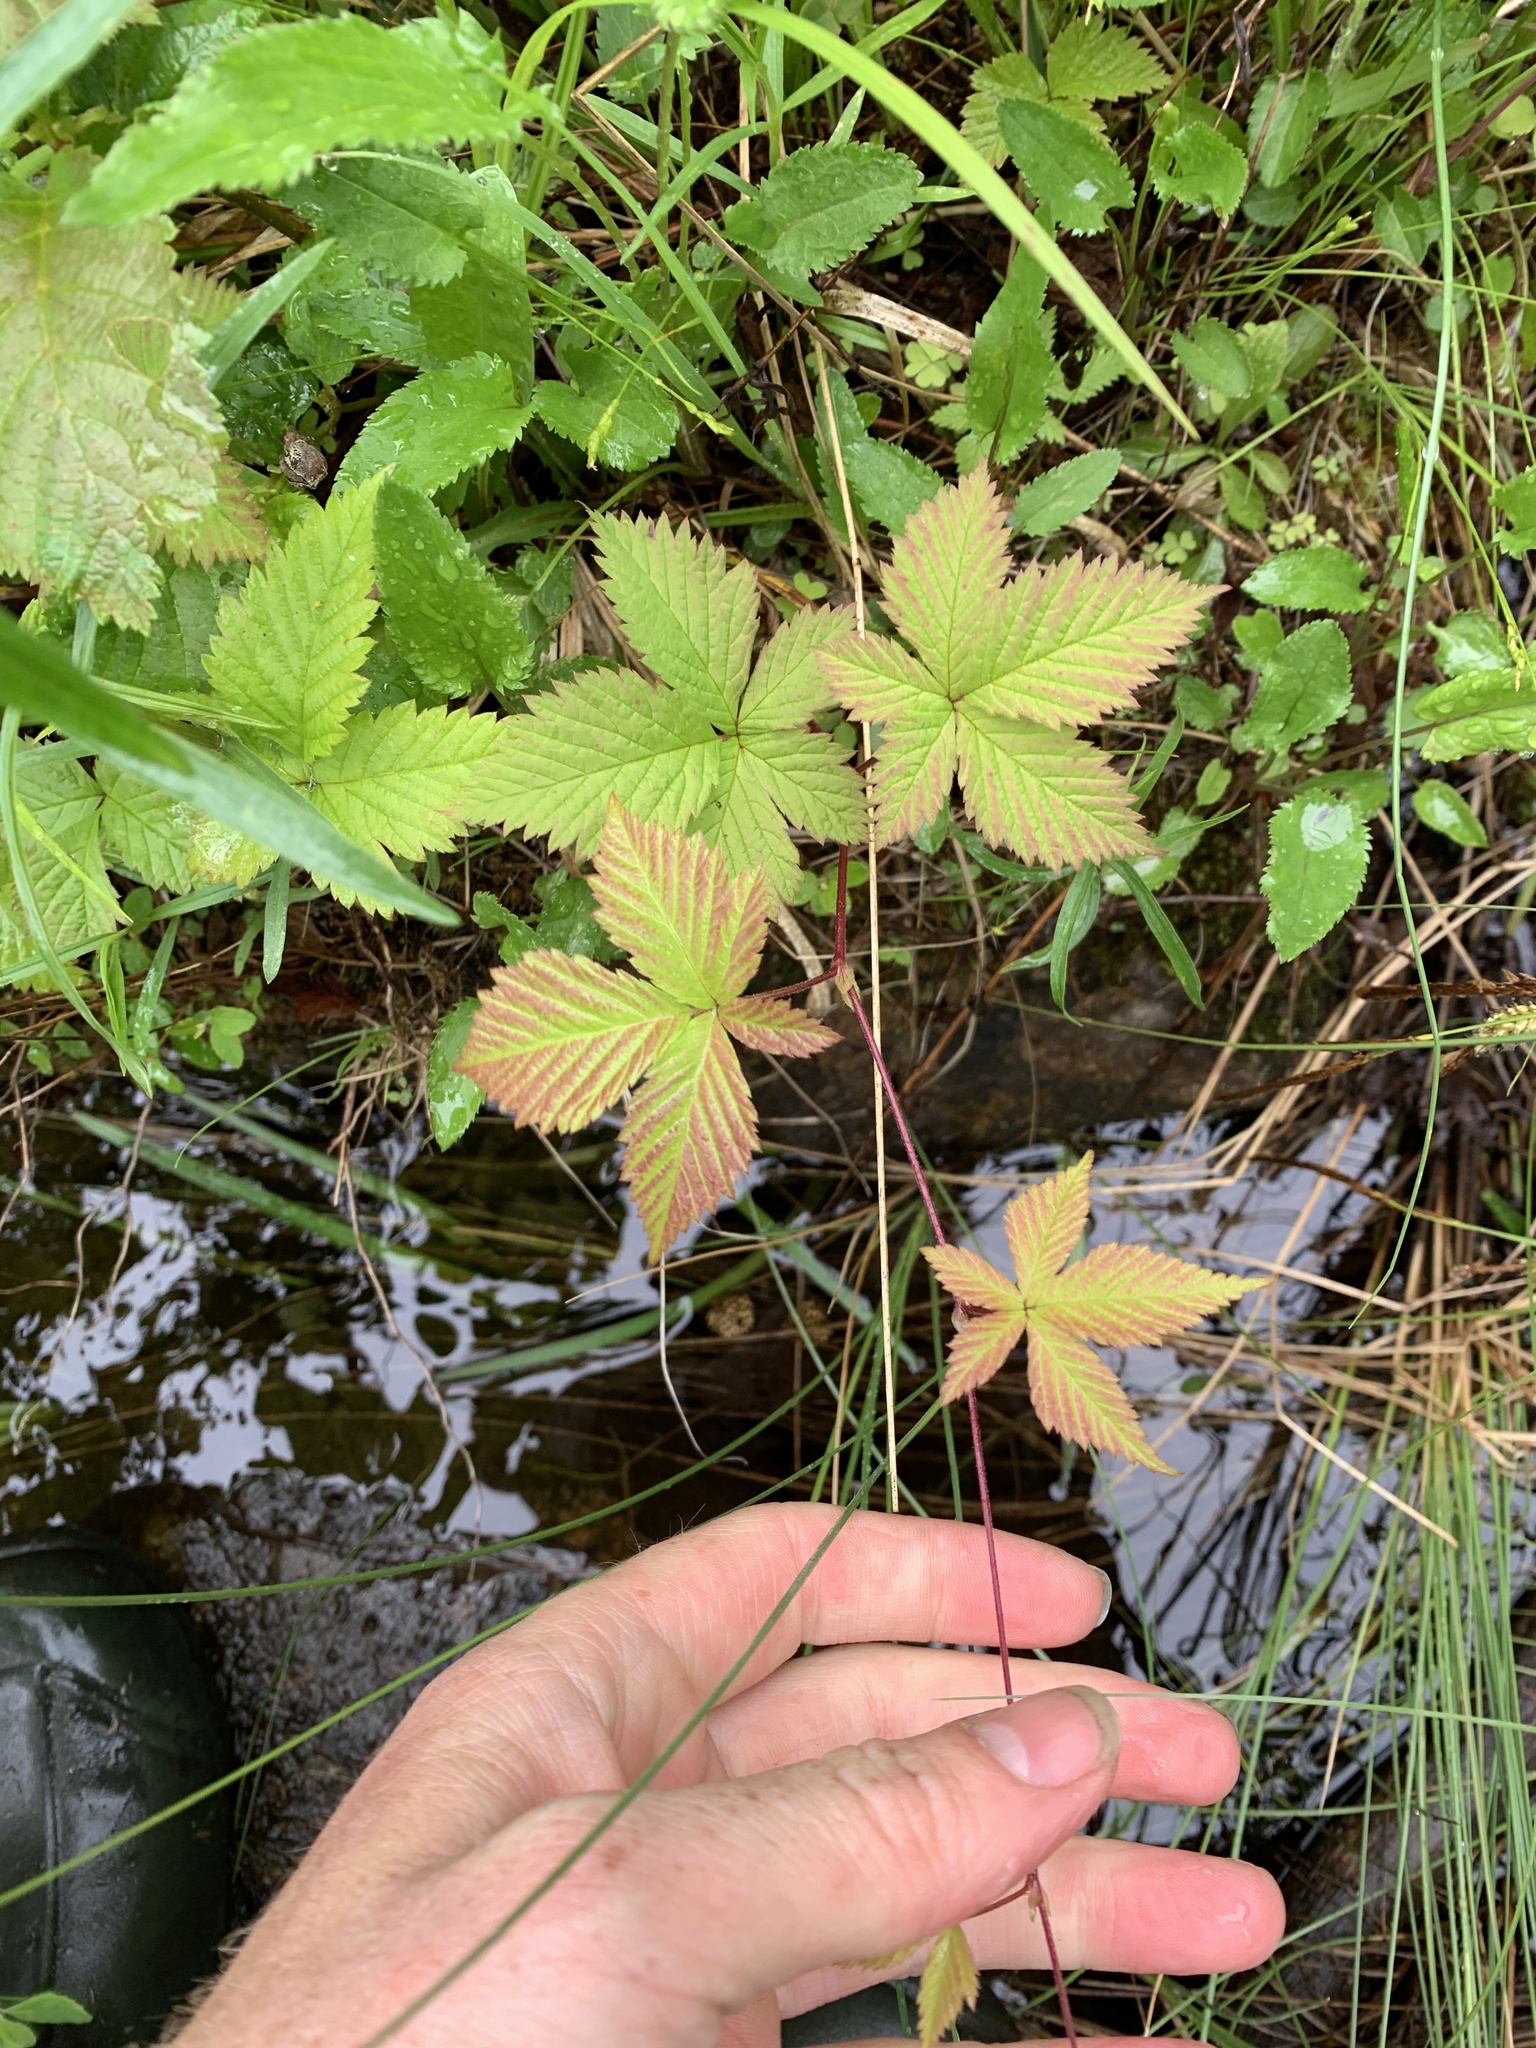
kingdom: Plantae
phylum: Tracheophyta
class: Magnoliopsida
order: Rosales
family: Rosaceae
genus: Rubus
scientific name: Rubus pubescens
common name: Dwarf raspberry
